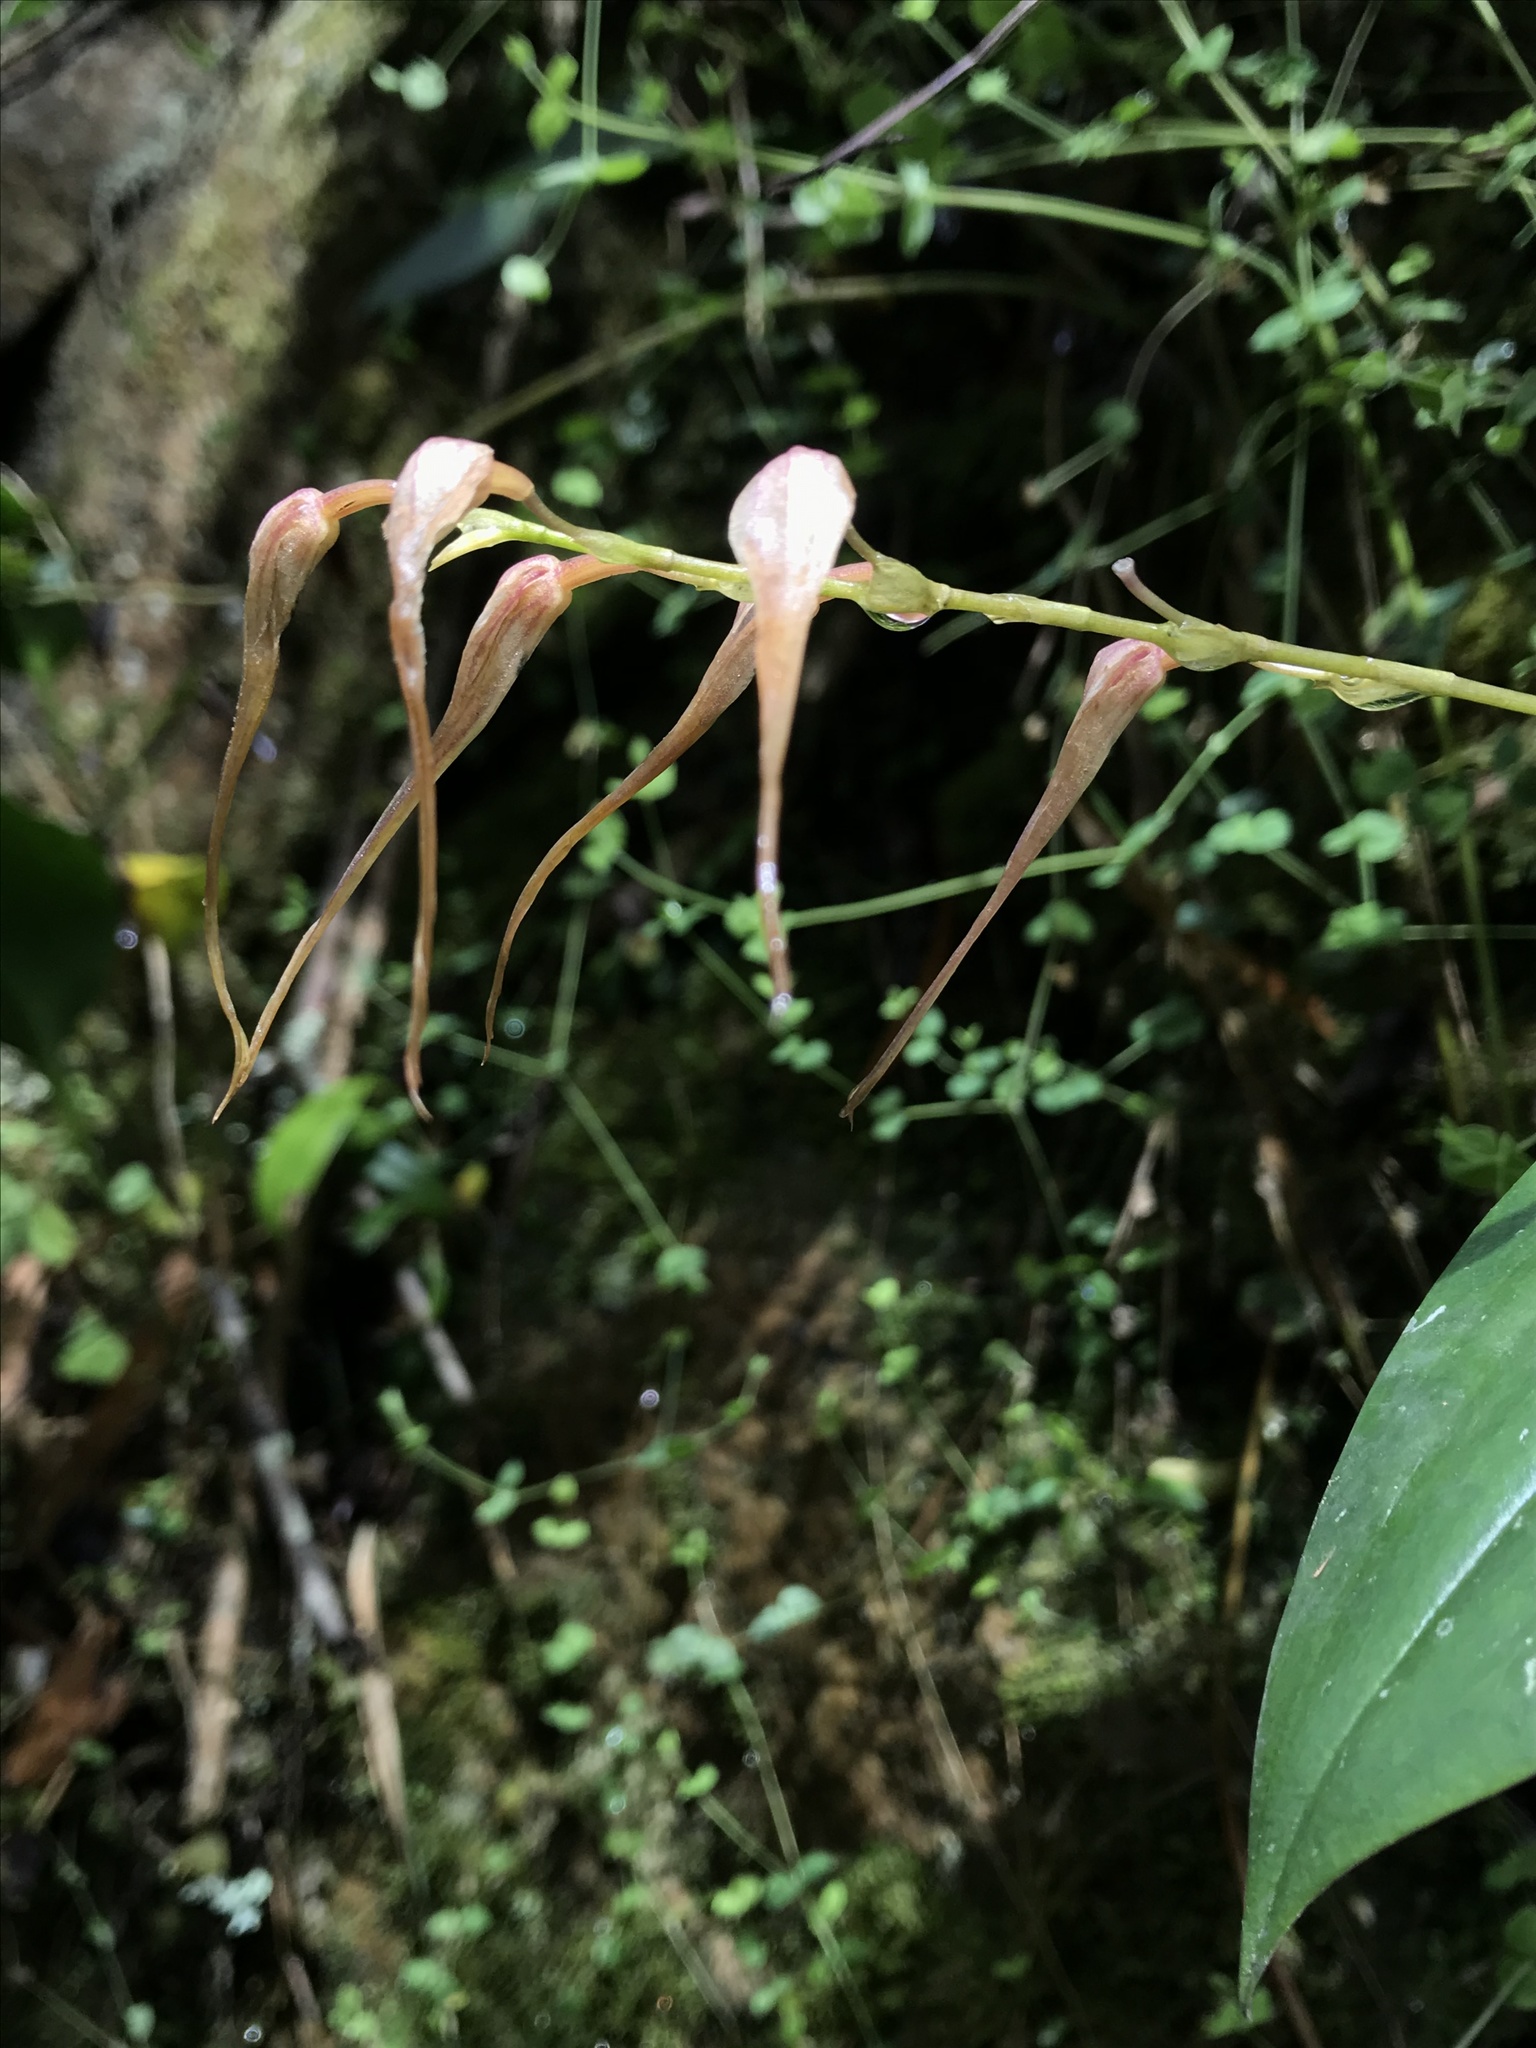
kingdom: Plantae
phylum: Tracheophyta
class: Liliopsida
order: Asparagales
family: Orchidaceae
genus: Pleurothallis
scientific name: Pleurothallis phalangifera
